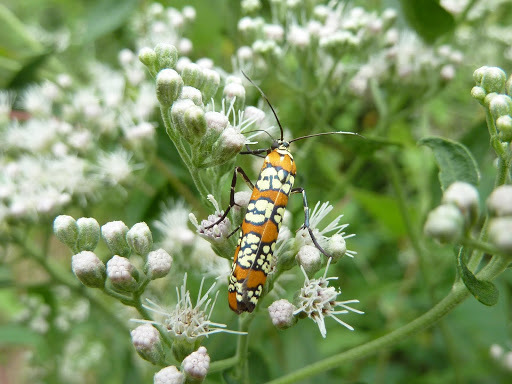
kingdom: Animalia
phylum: Arthropoda
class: Insecta
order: Lepidoptera
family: Attevidae
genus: Atteva
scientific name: Atteva punctella
